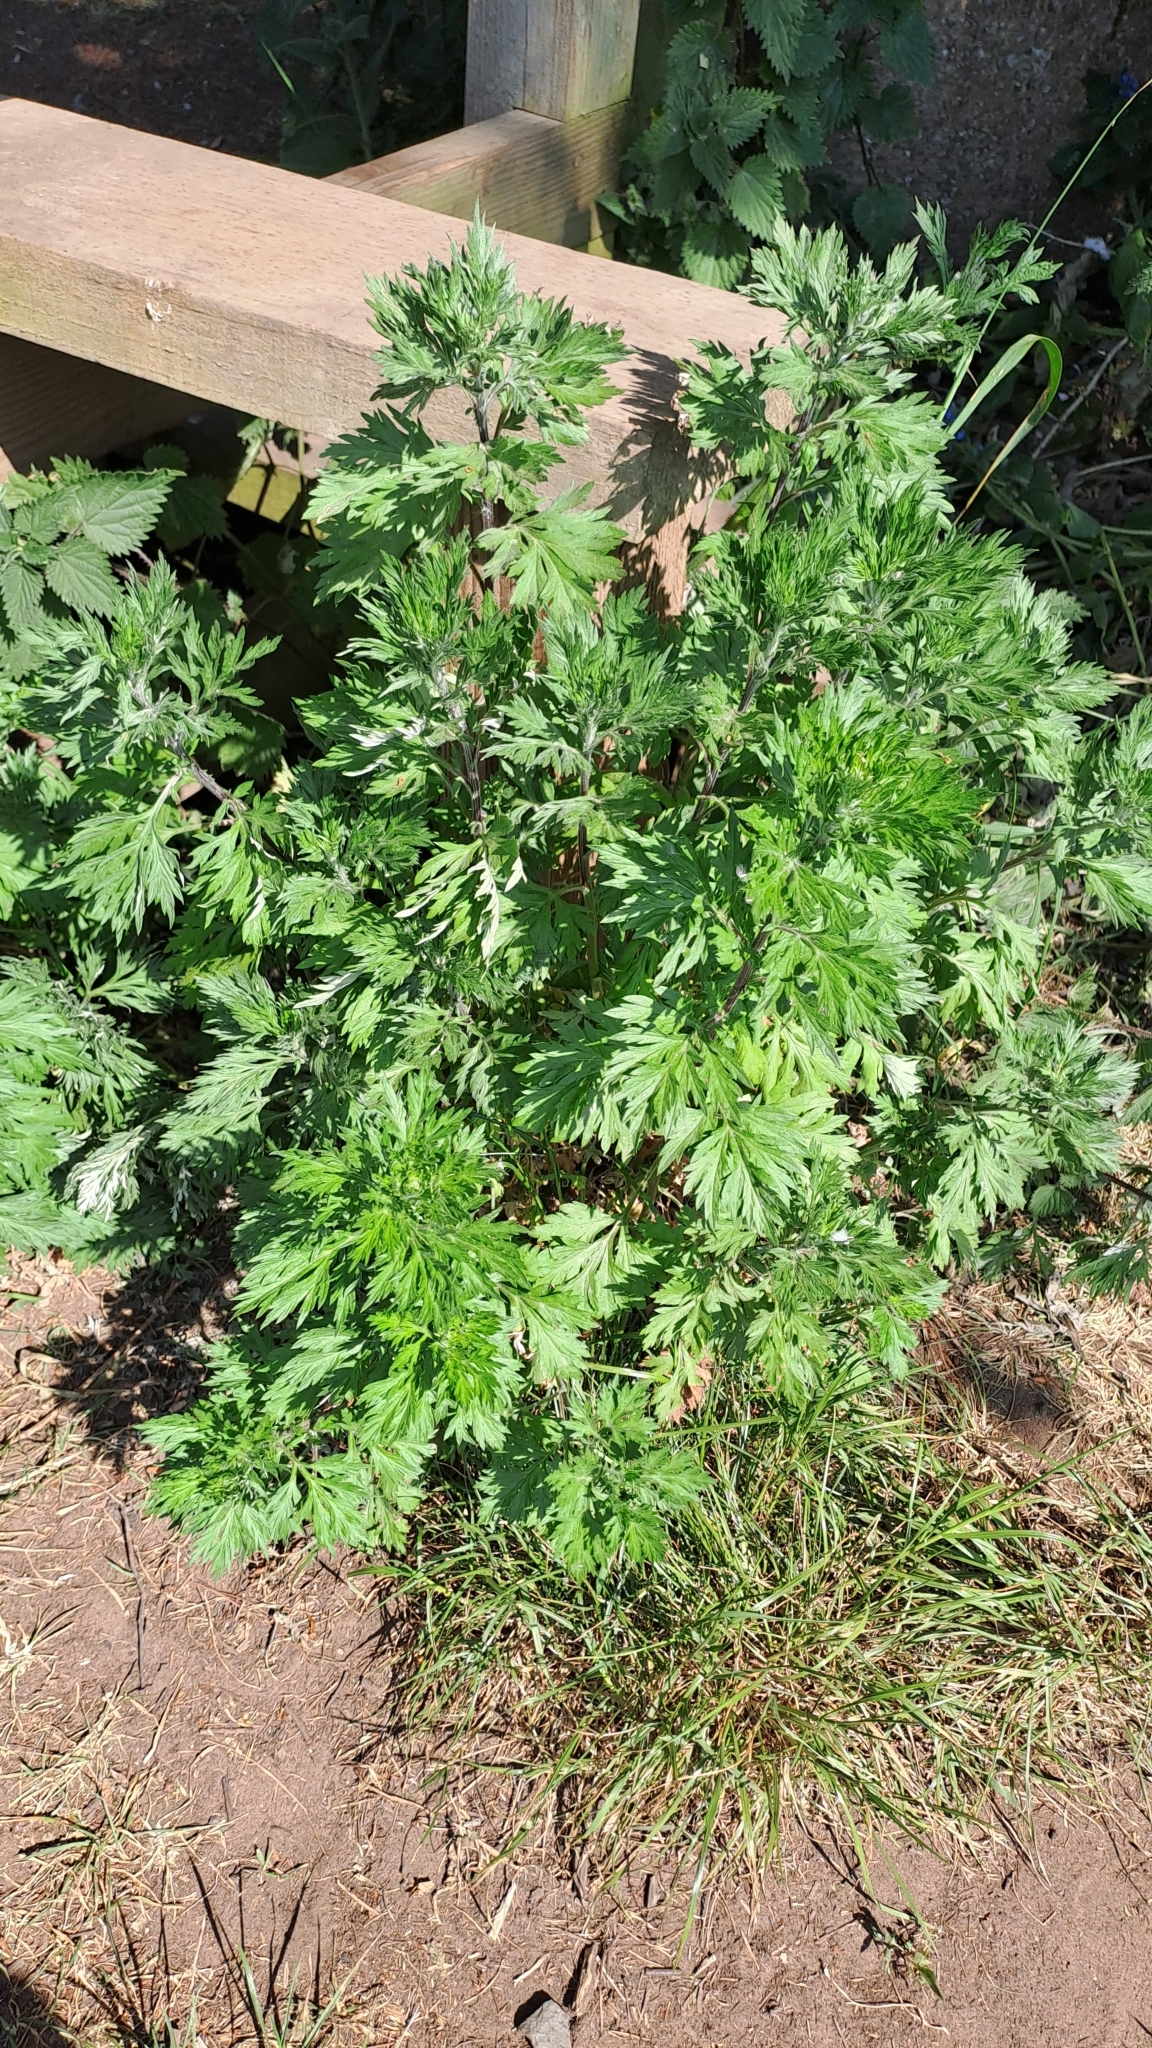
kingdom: Plantae
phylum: Tracheophyta
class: Magnoliopsida
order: Asterales
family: Asteraceae
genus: Artemisia
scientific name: Artemisia vulgaris
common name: Mugwort
